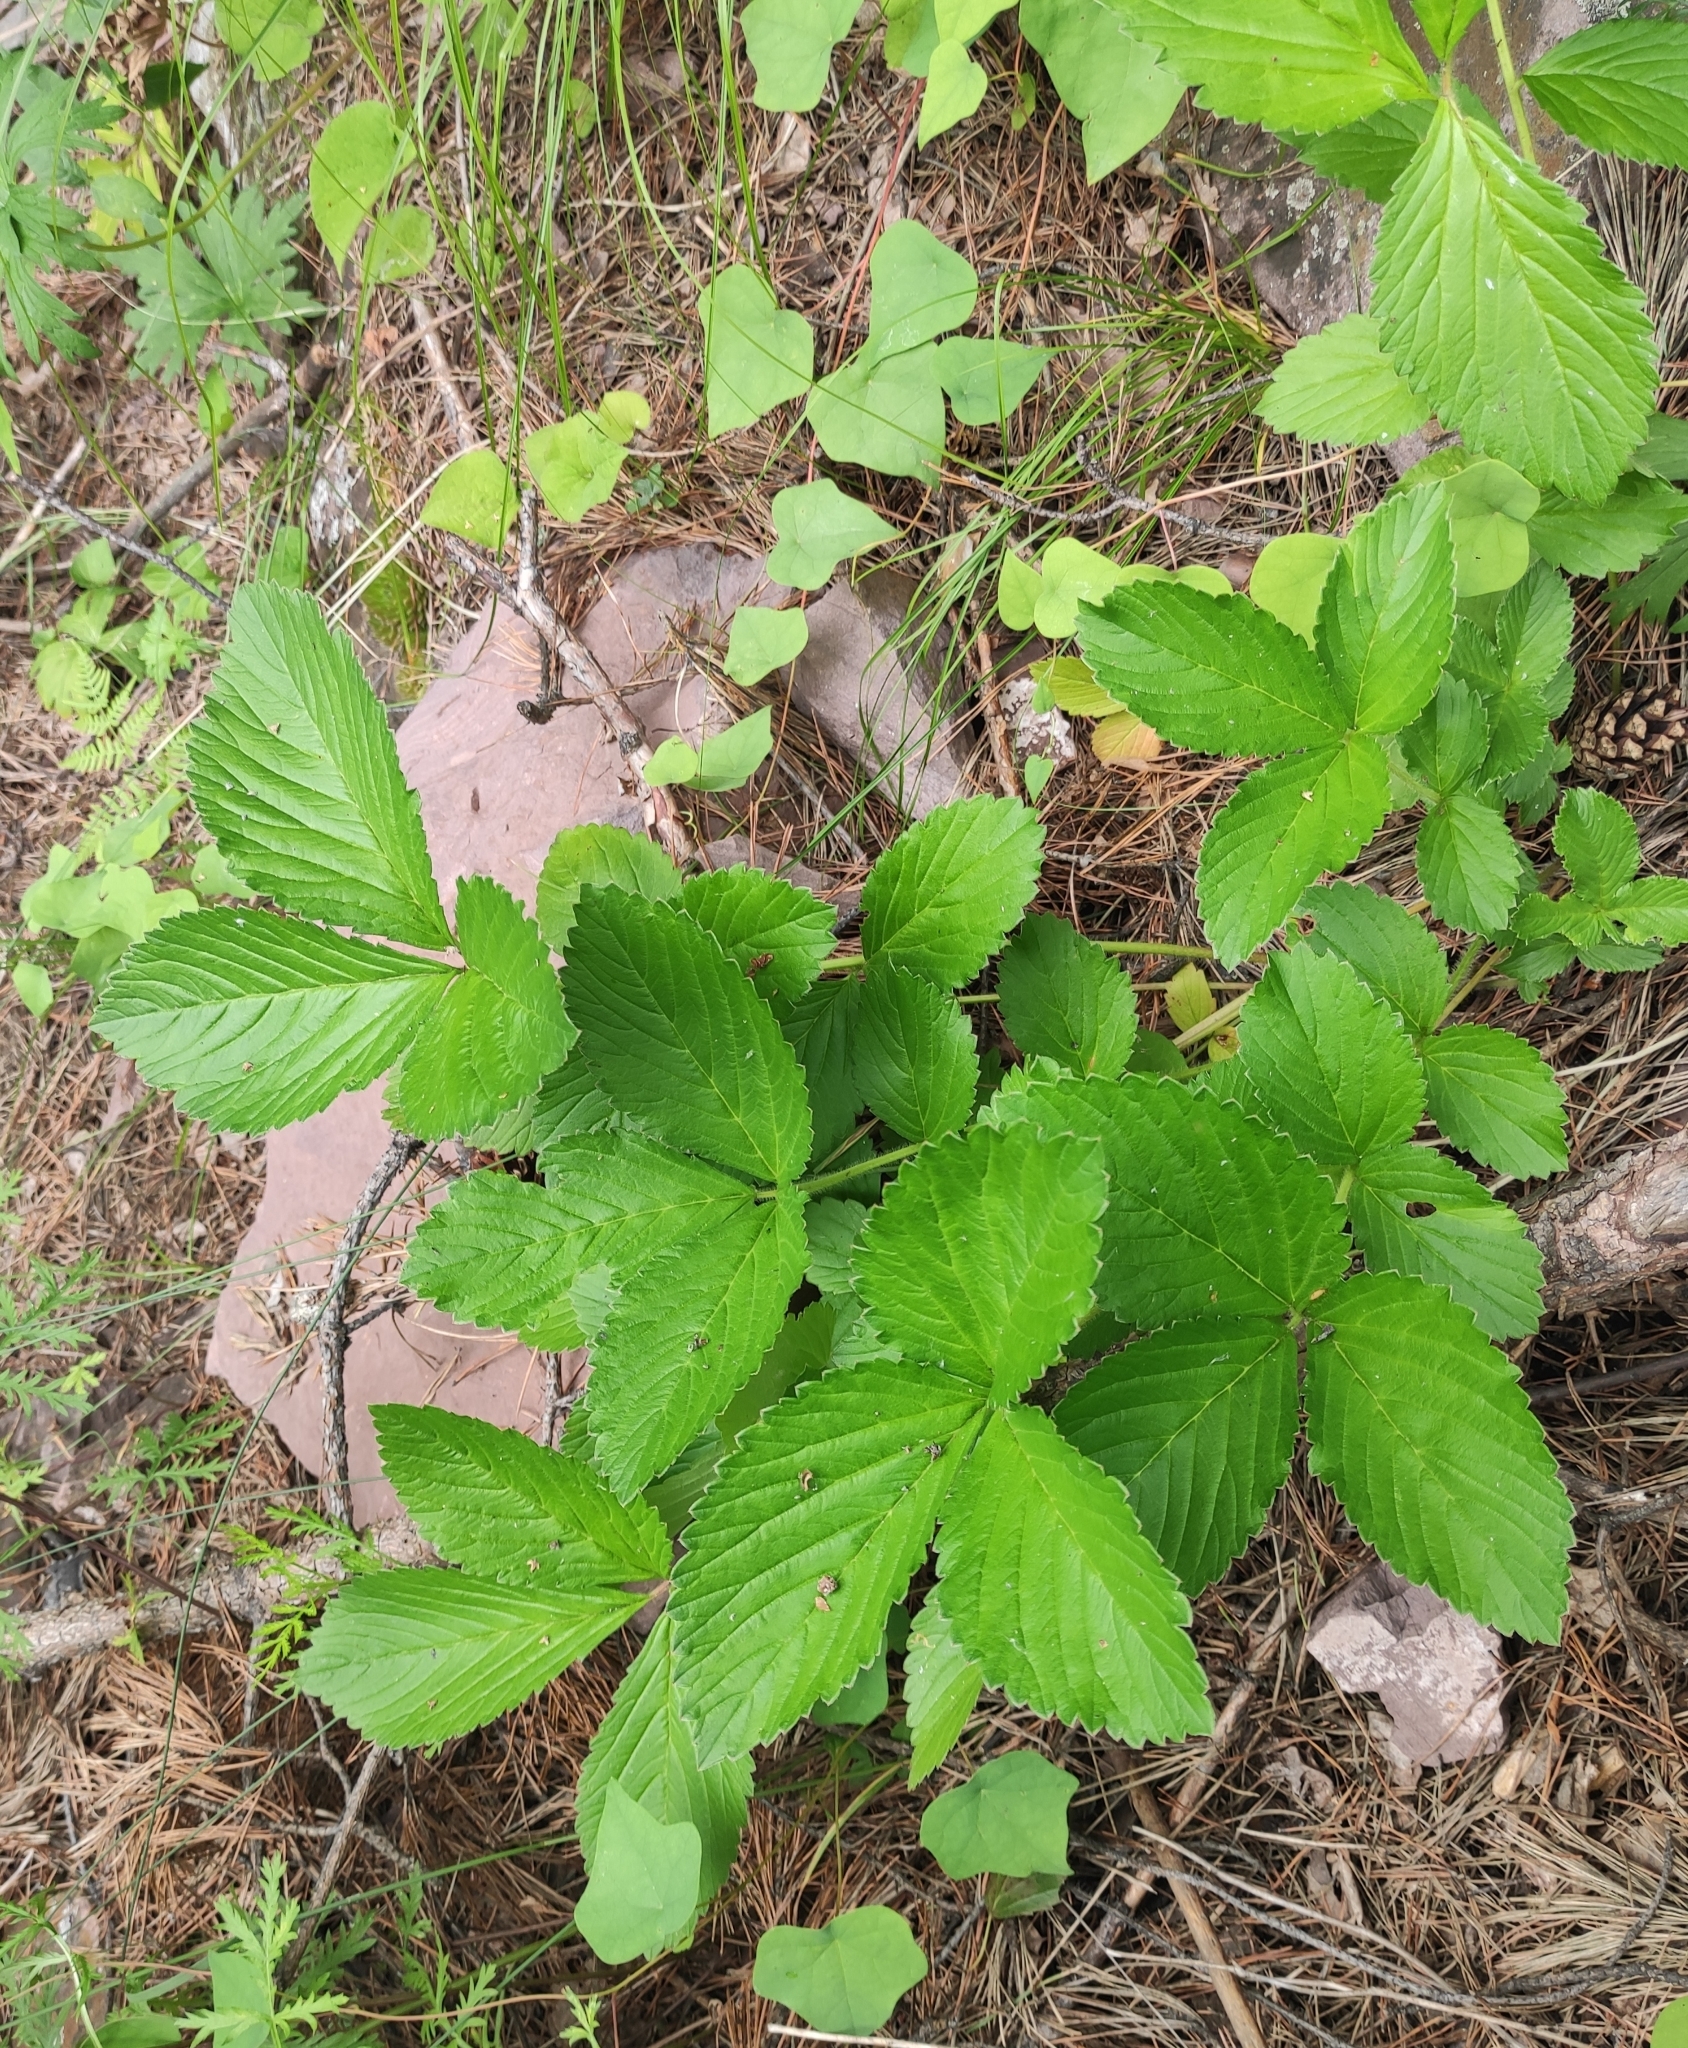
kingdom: Plantae
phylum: Tracheophyta
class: Magnoliopsida
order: Rosales
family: Rosaceae
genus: Potentilla
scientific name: Potentilla fragarioides
